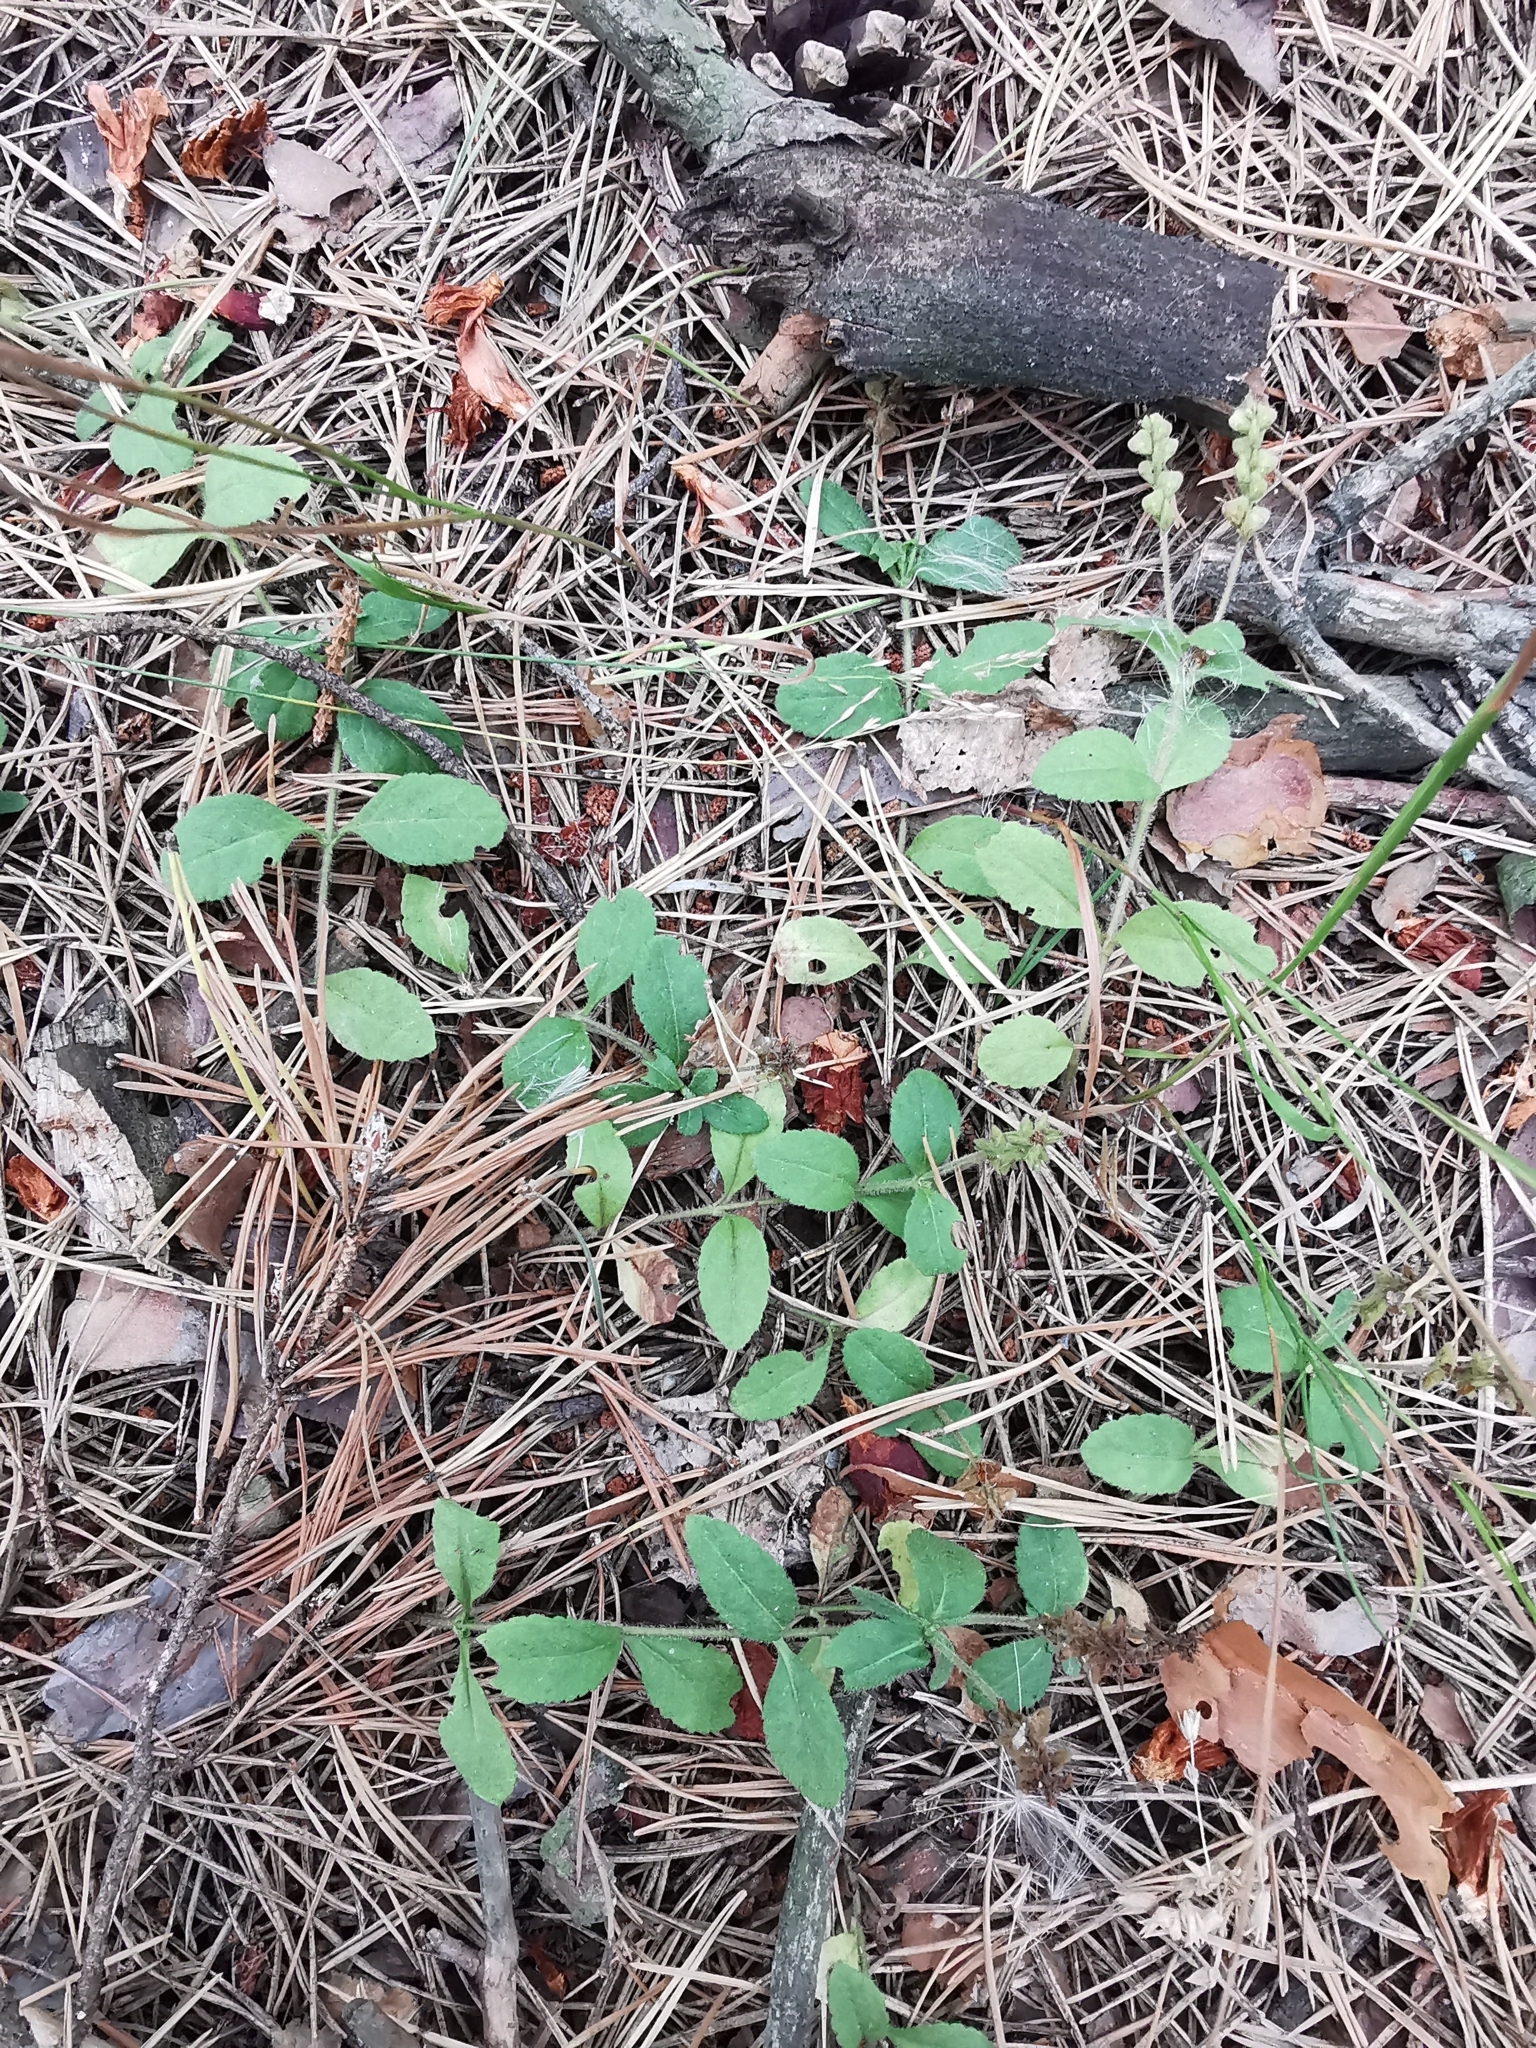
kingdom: Plantae
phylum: Tracheophyta
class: Magnoliopsida
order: Lamiales
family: Plantaginaceae
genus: Veronica
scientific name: Veronica officinalis
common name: Common speedwell
